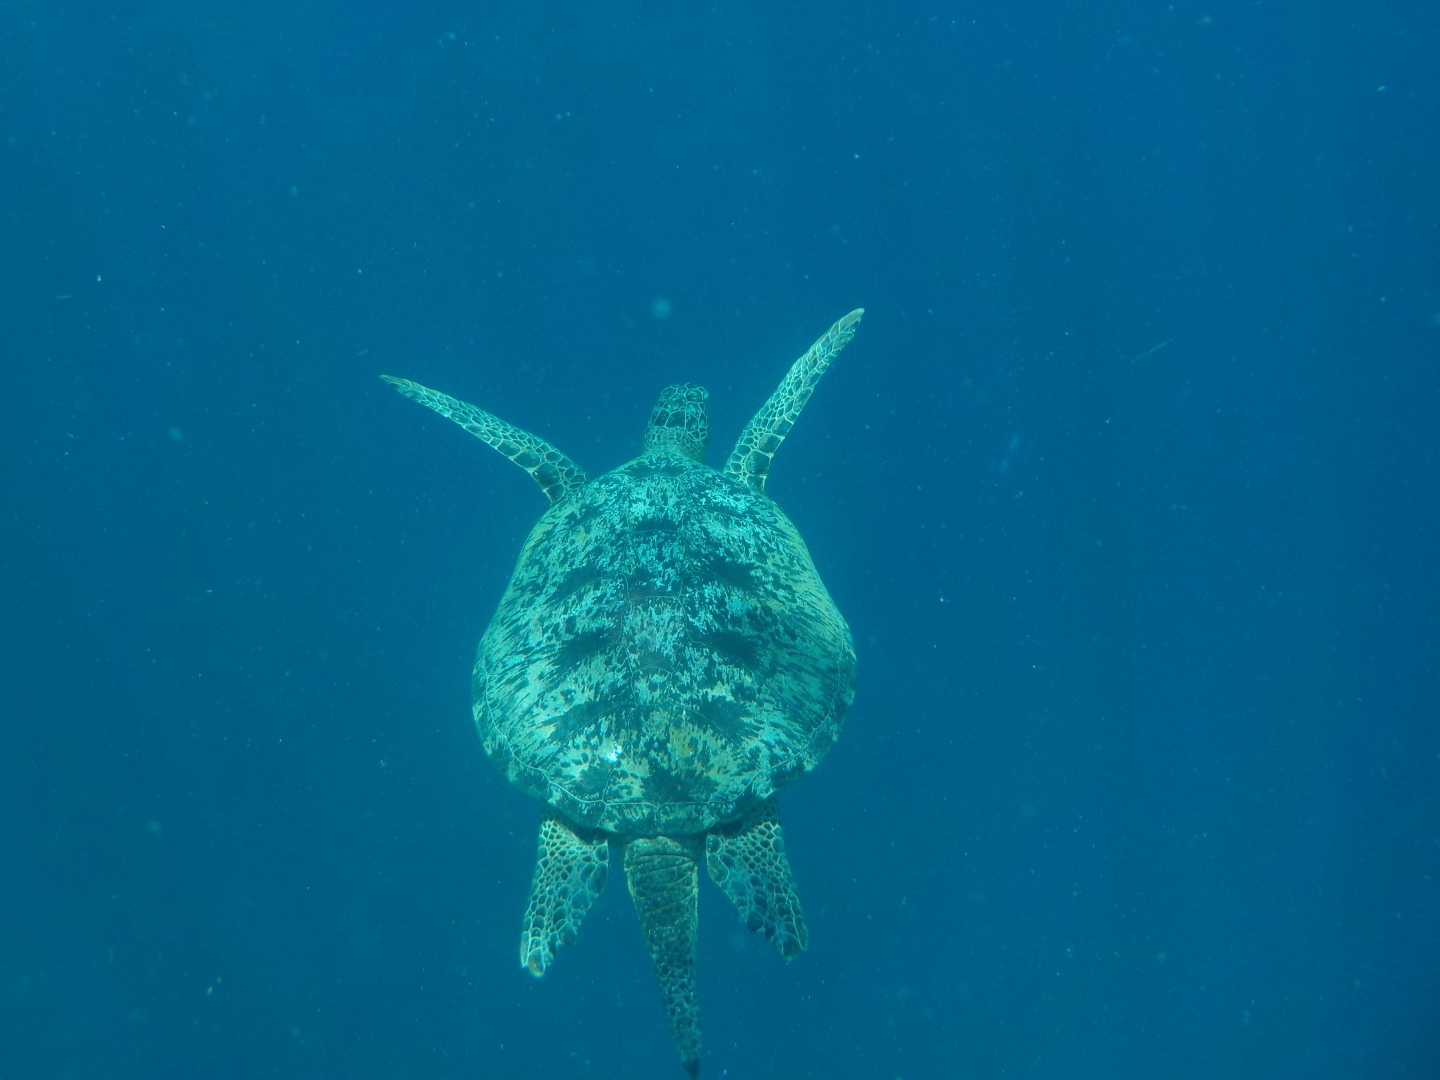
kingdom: Animalia
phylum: Chordata
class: Testudines
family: Cheloniidae
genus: Chelonia
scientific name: Chelonia mydas
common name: Green turtle
